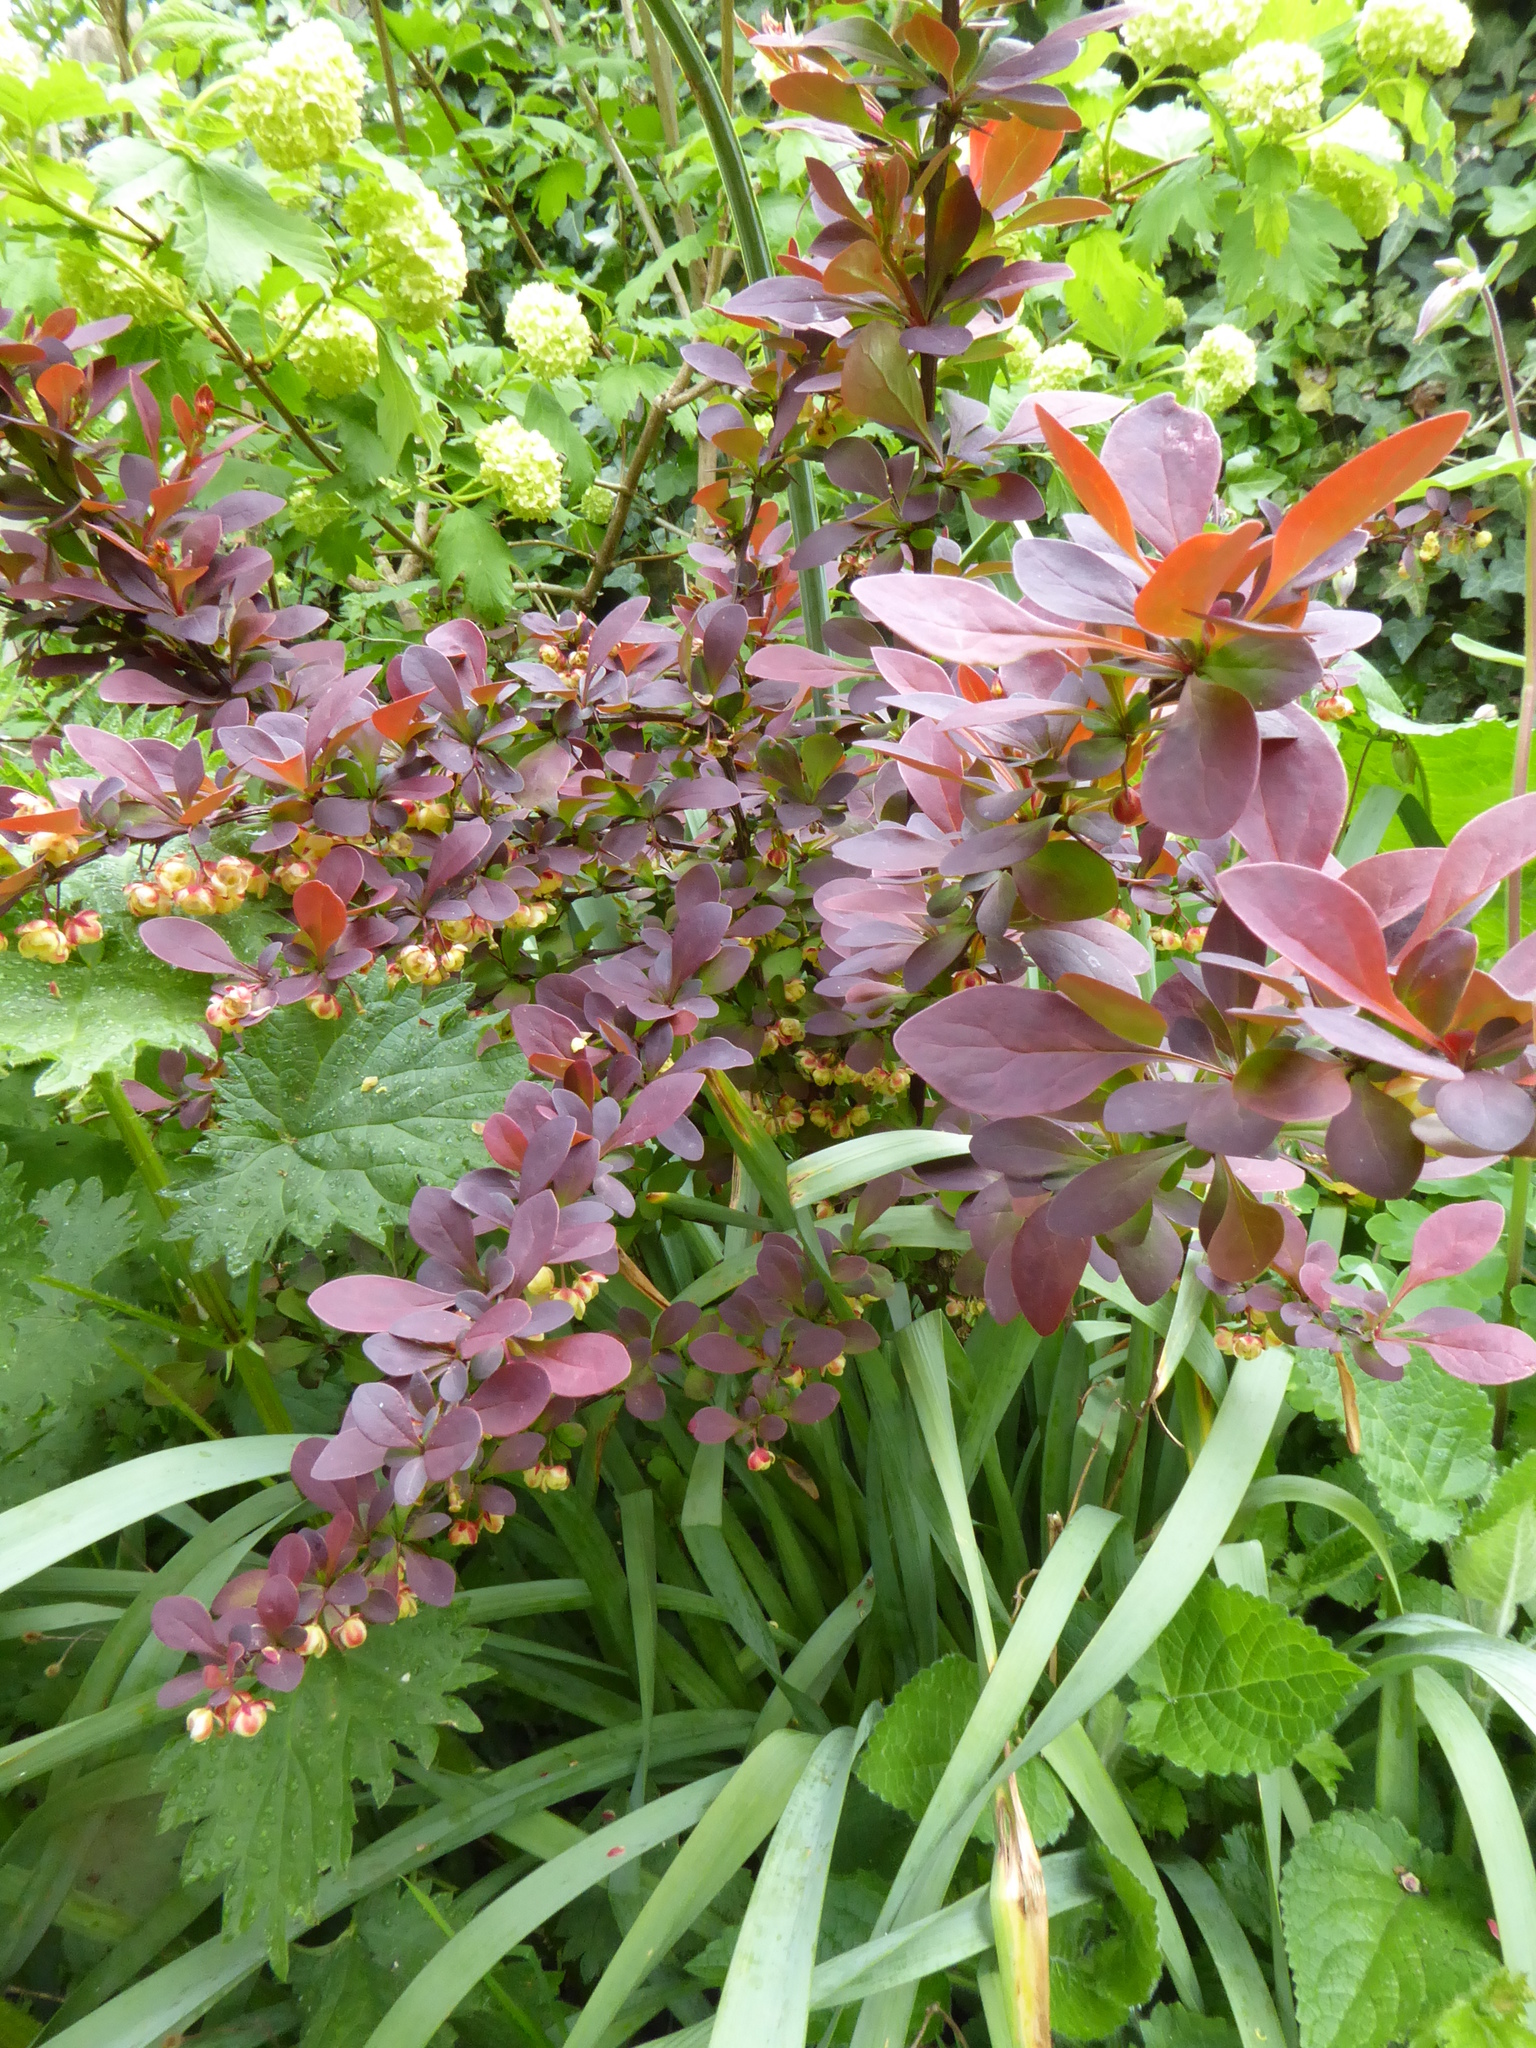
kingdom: Plantae
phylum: Tracheophyta
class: Magnoliopsida
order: Ranunculales
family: Berberidaceae
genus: Berberis
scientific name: Berberis thunbergii
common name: Japanese barberry
